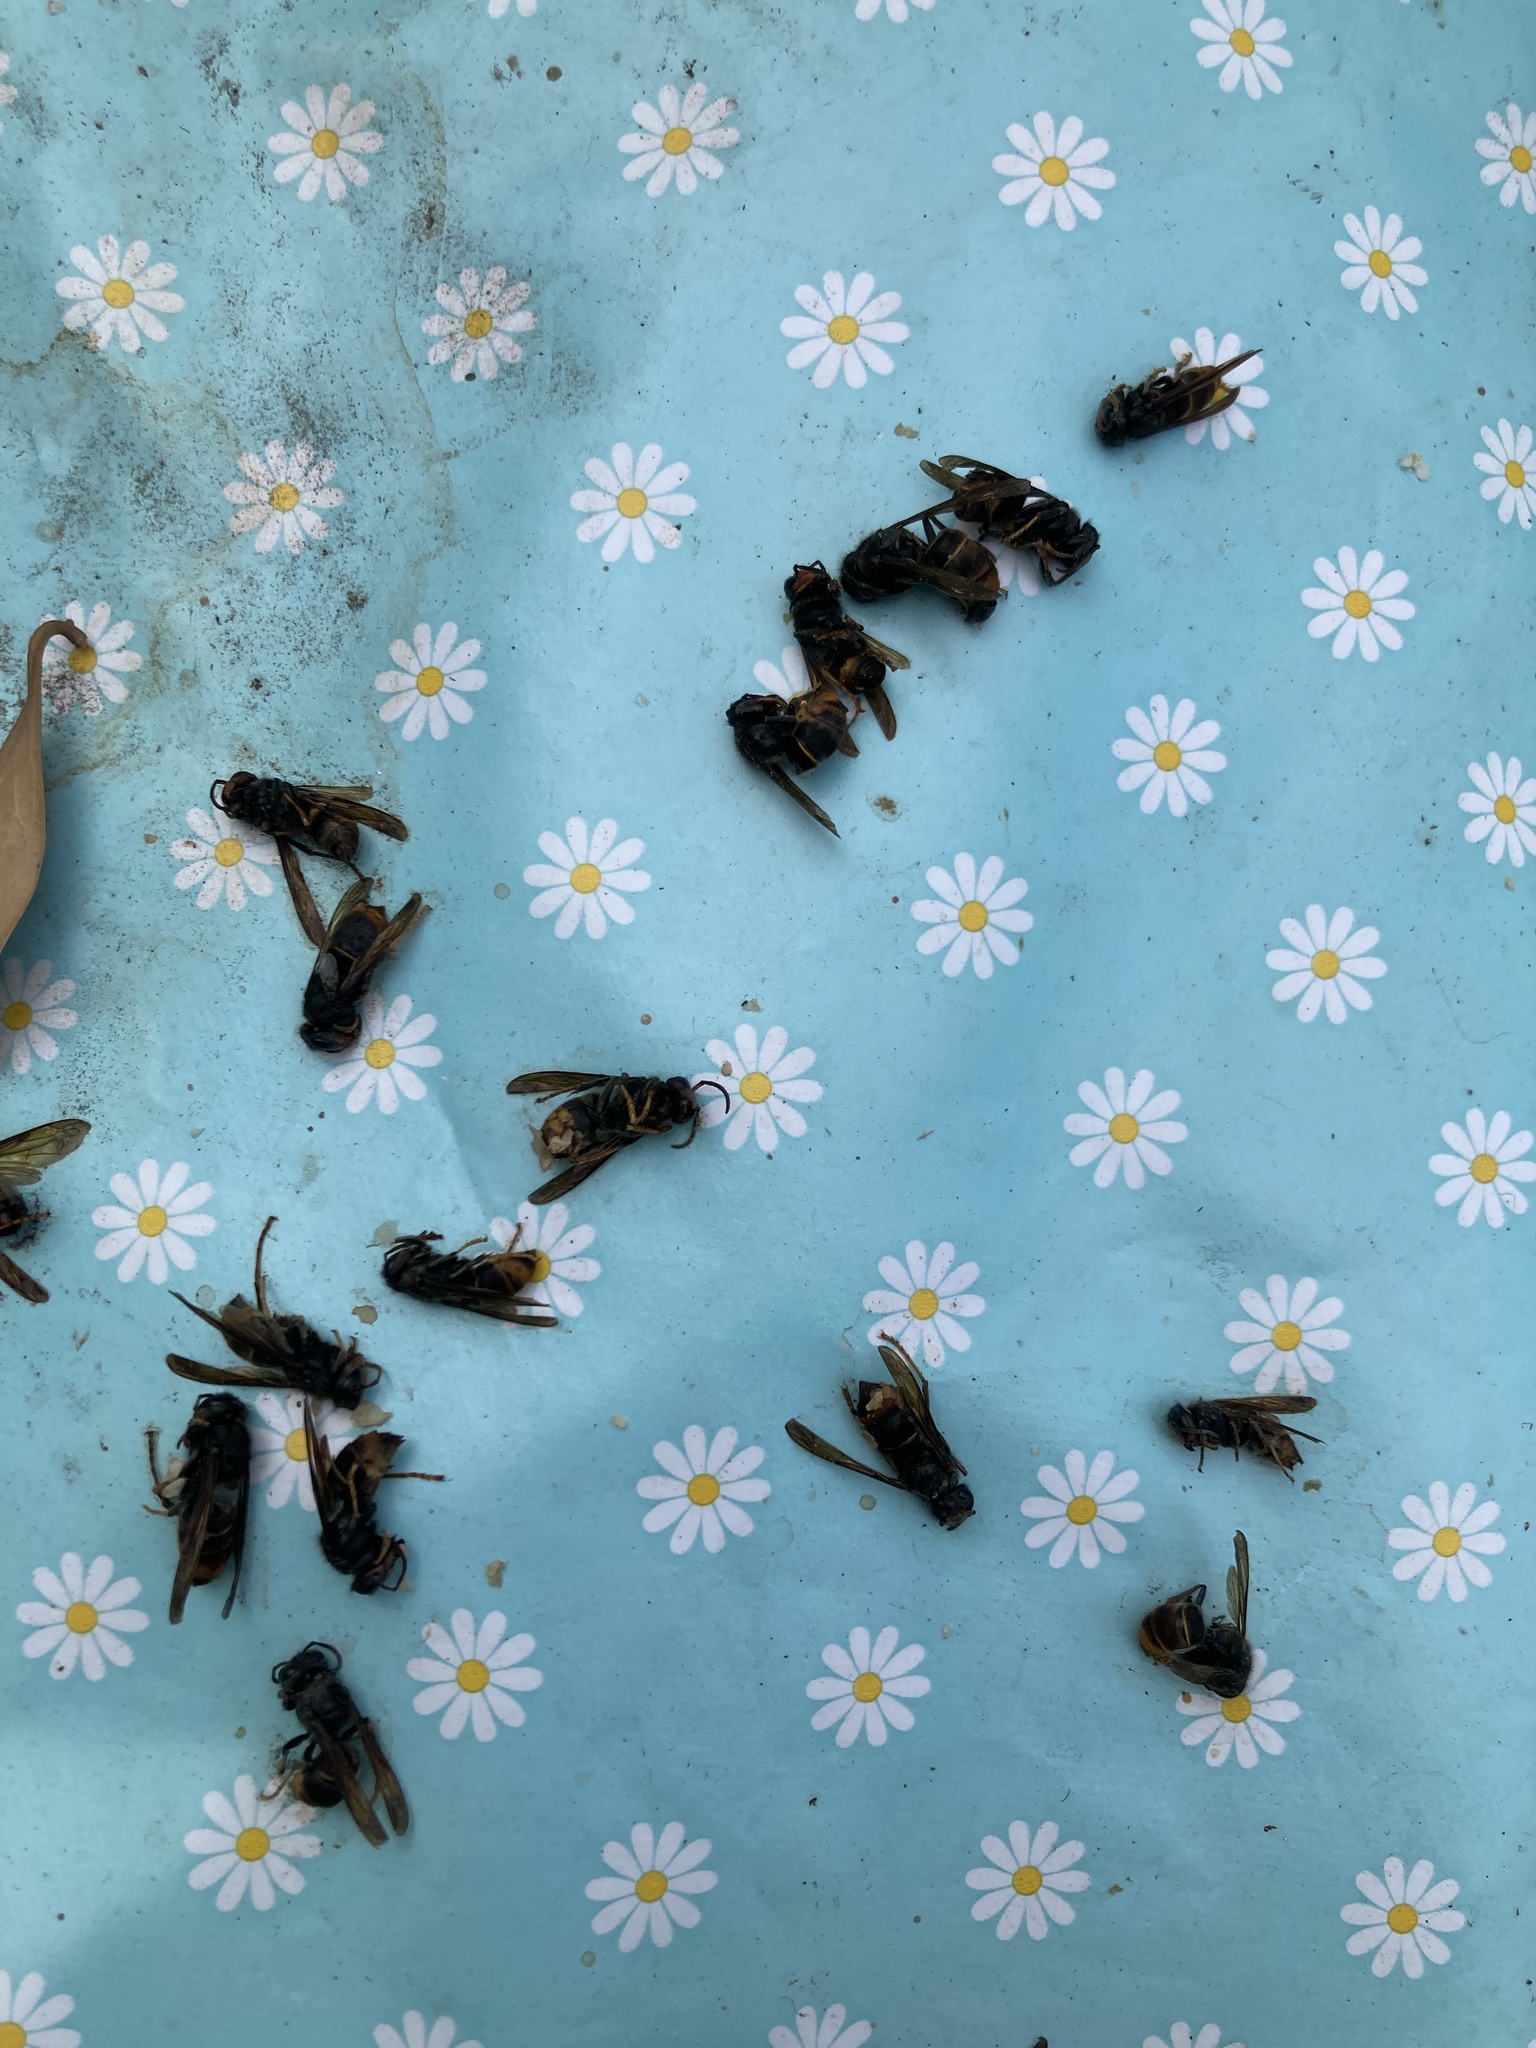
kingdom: Animalia
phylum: Arthropoda
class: Insecta
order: Hymenoptera
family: Vespidae
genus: Vespa
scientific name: Vespa velutina
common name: Asian hornet
